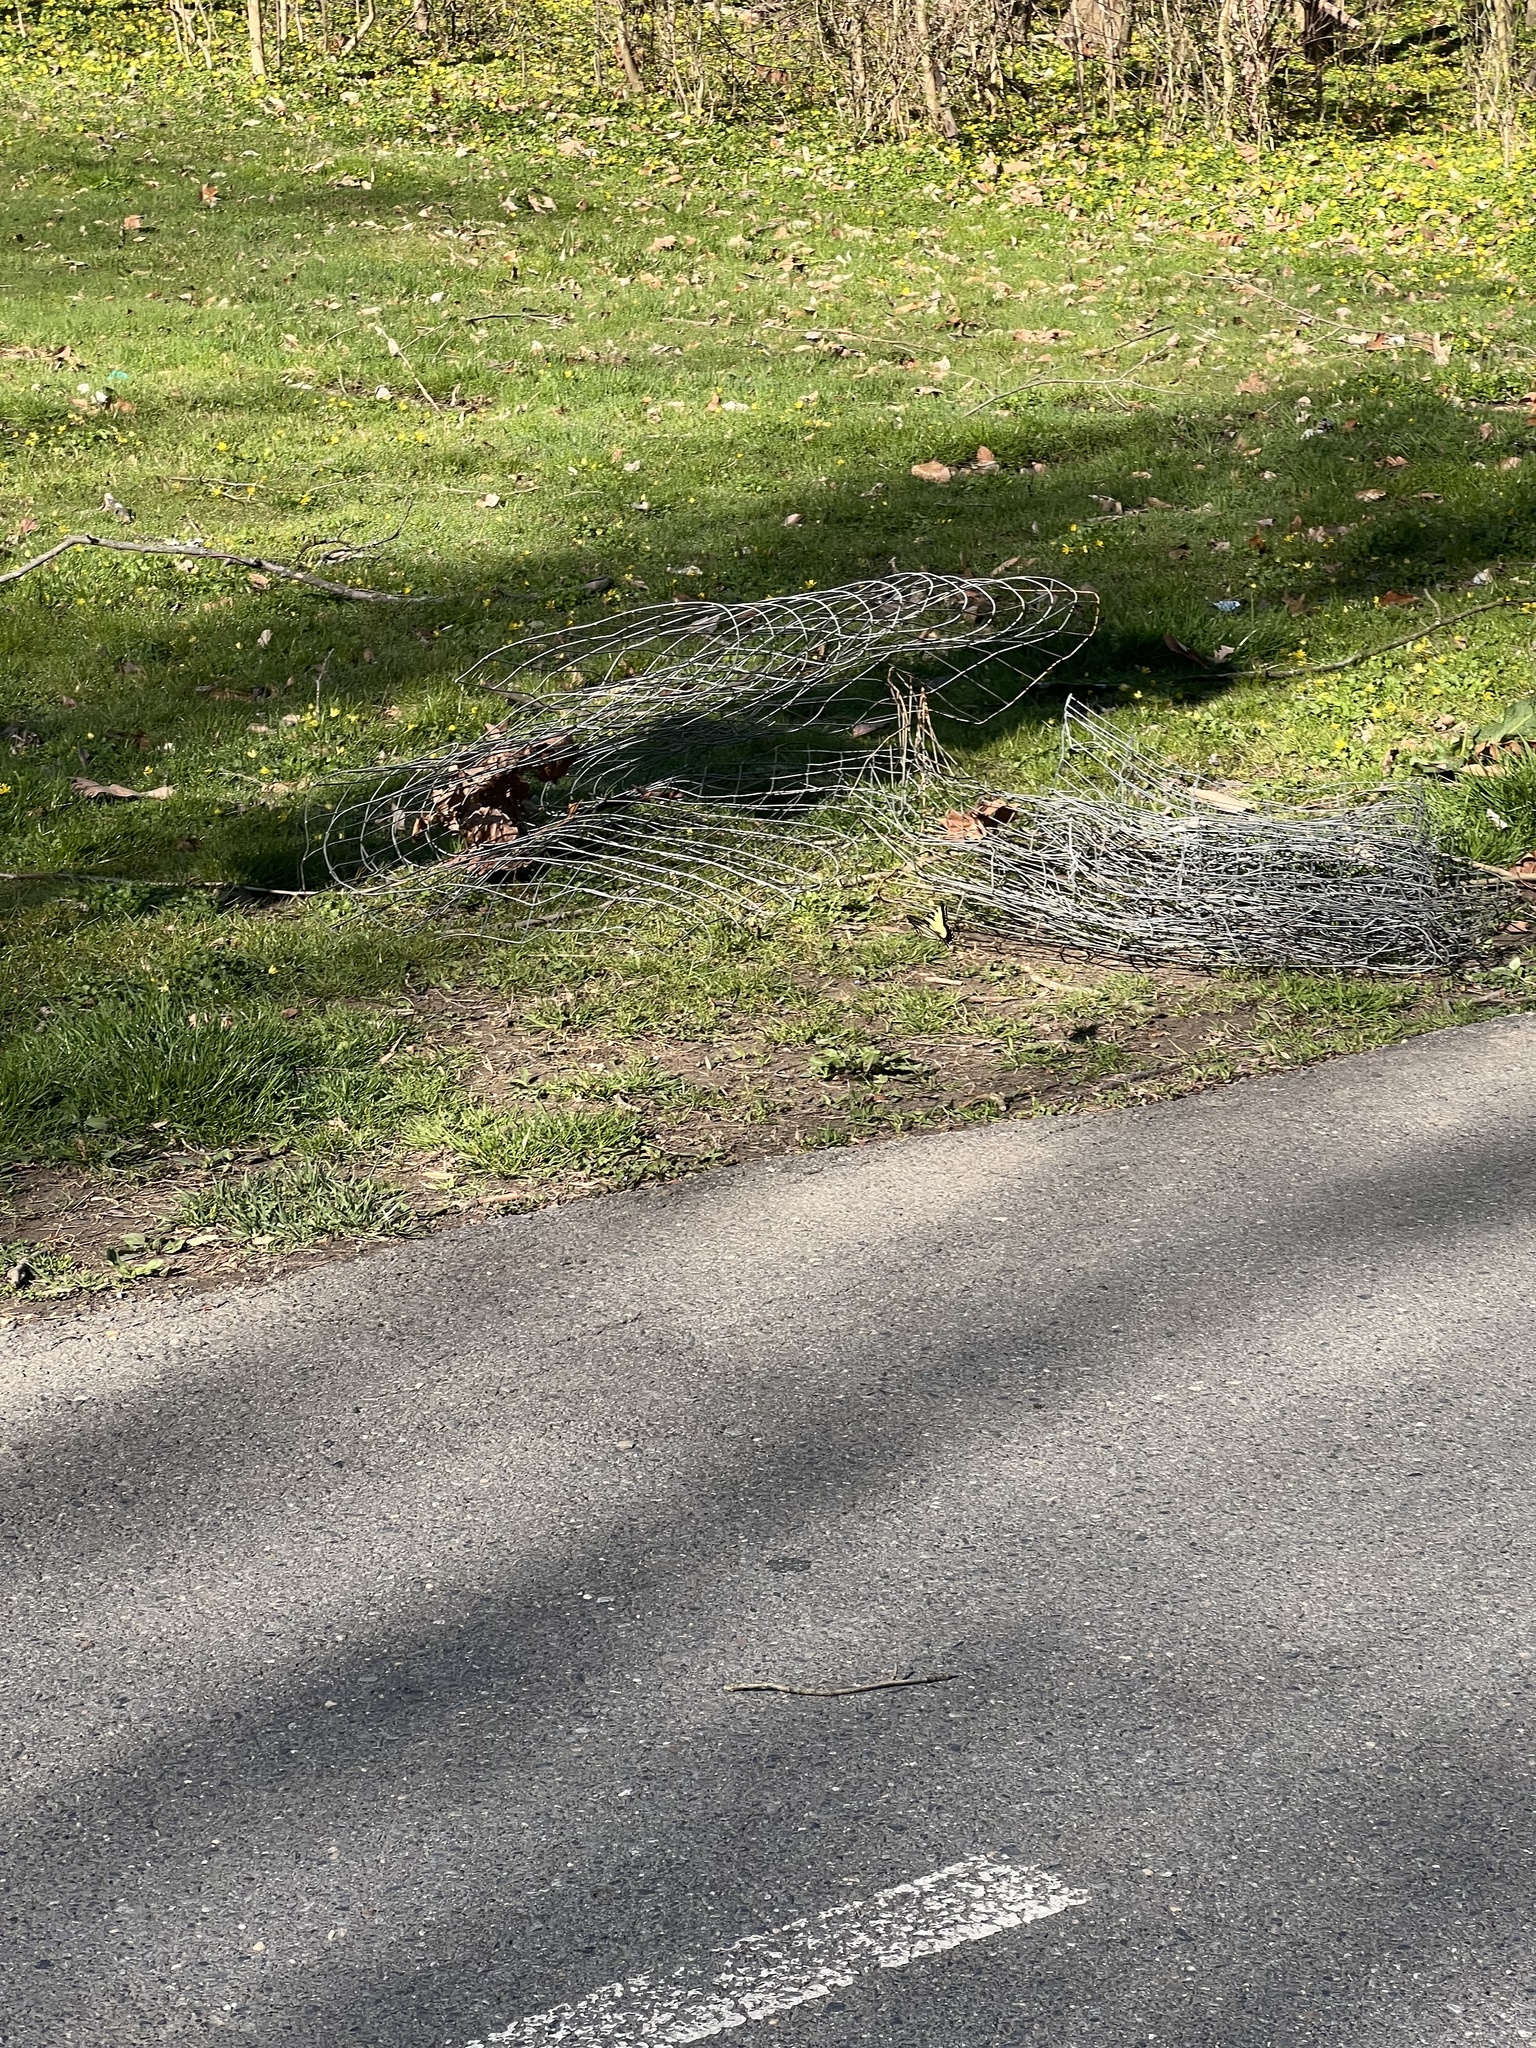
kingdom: Animalia
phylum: Arthropoda
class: Insecta
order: Lepidoptera
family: Papilionidae
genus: Papilio
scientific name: Papilio glaucus
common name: Tiger swallowtail
